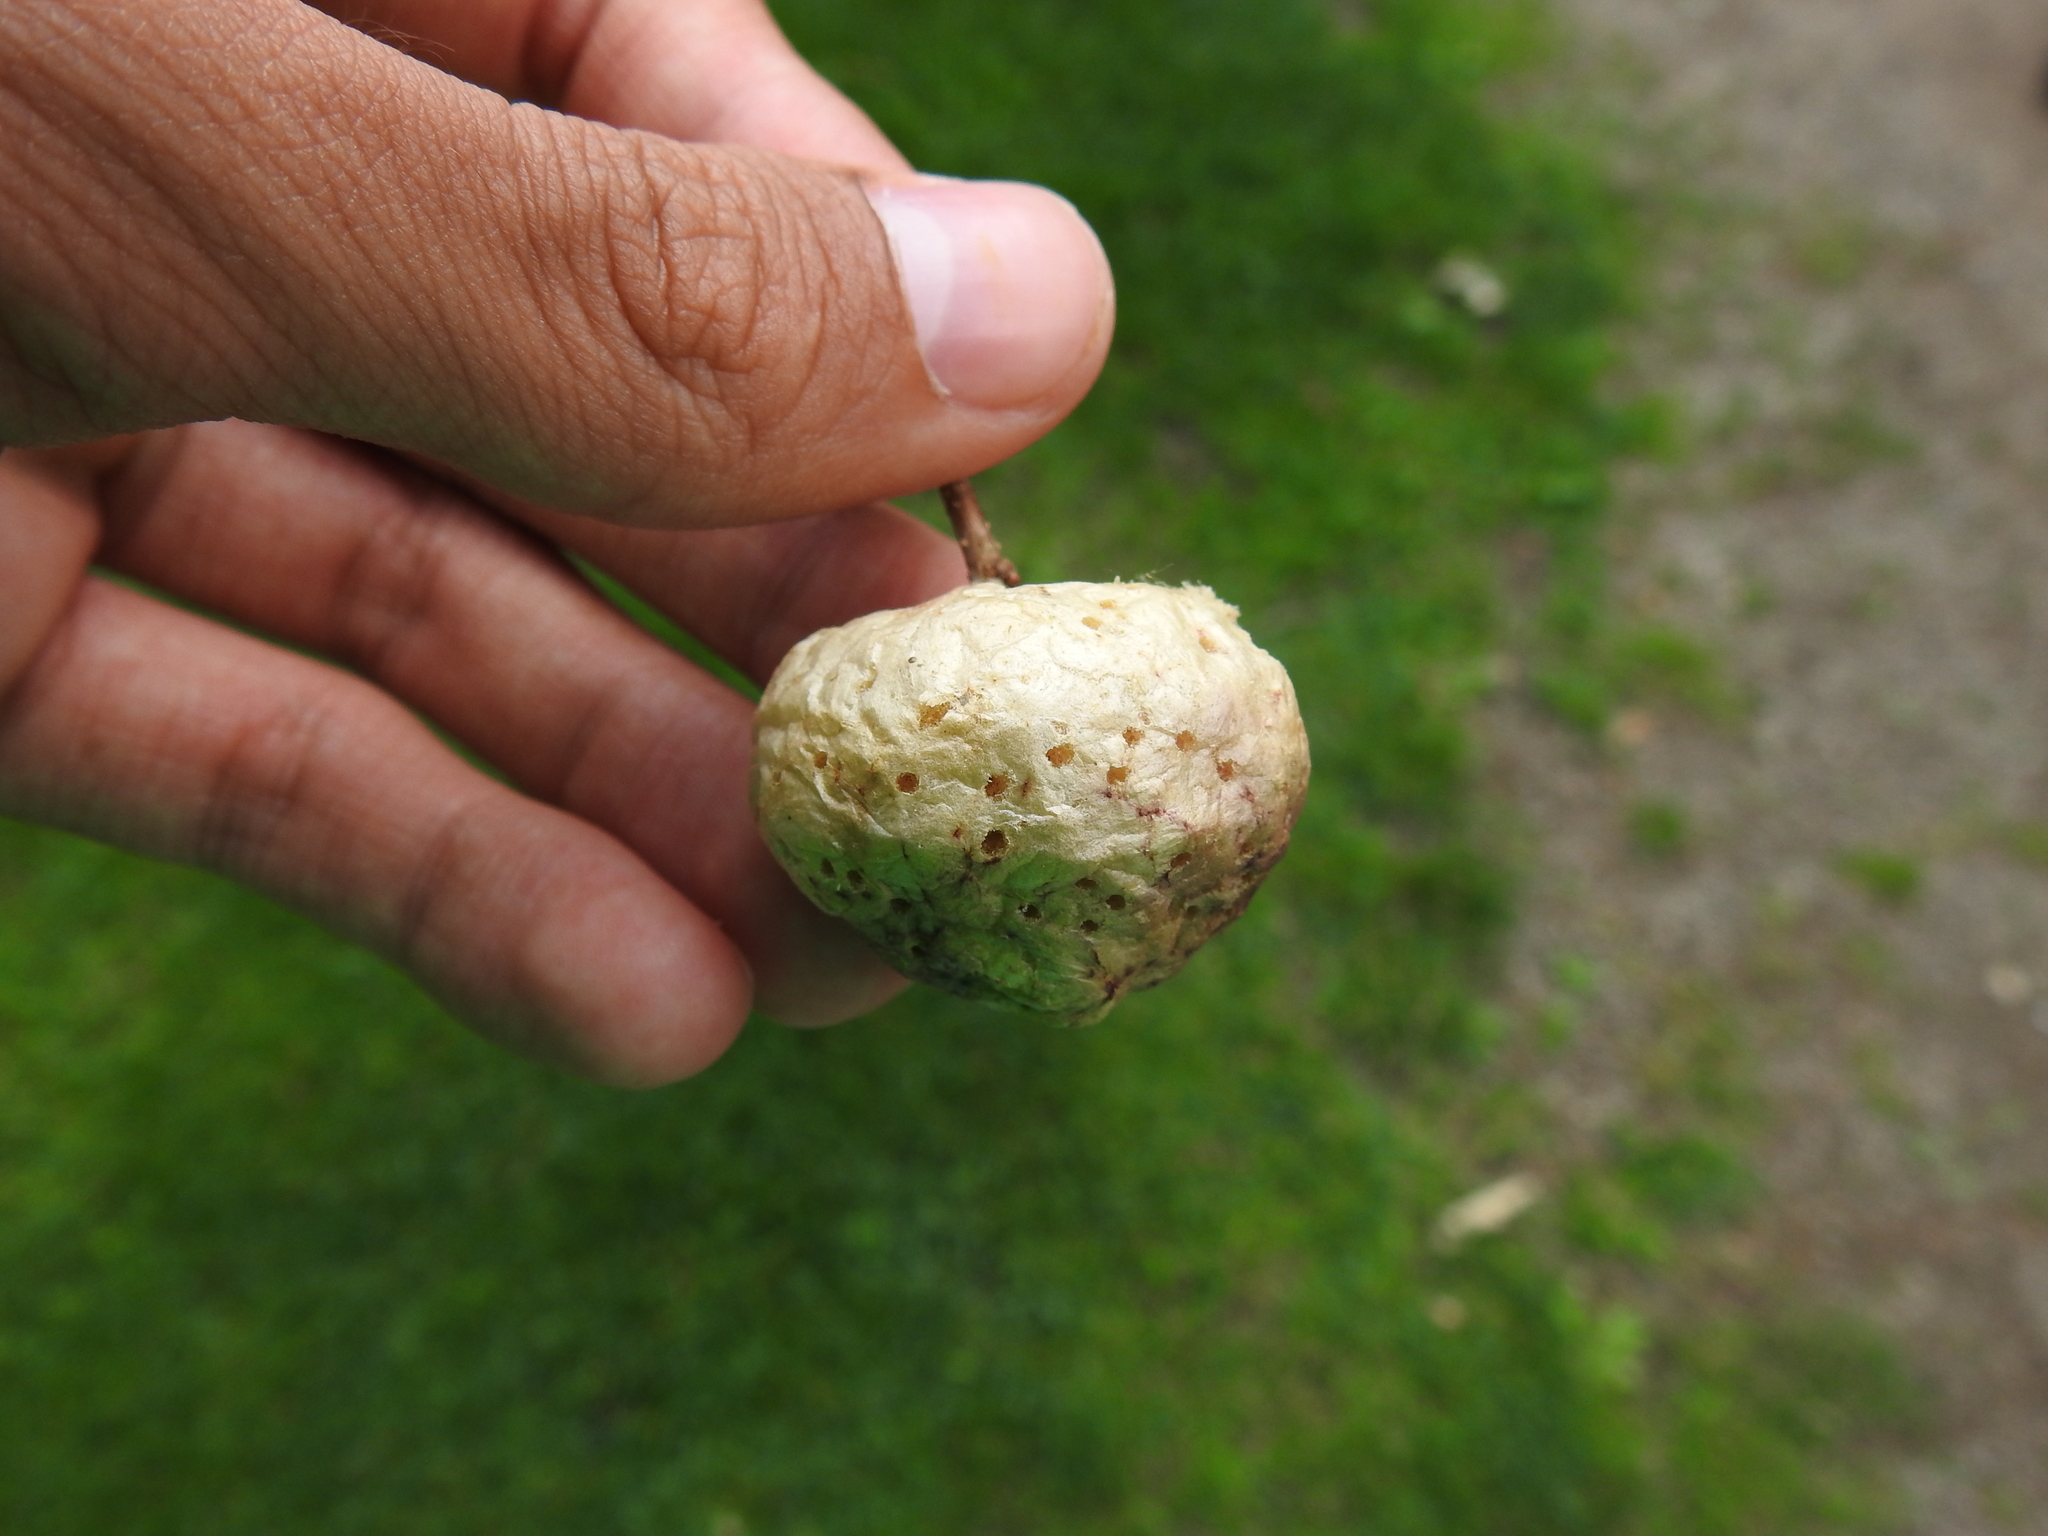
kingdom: Animalia
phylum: Arthropoda
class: Insecta
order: Hymenoptera
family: Cynipidae
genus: Biorhiza
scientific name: Biorhiza pallida
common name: Oak apple
